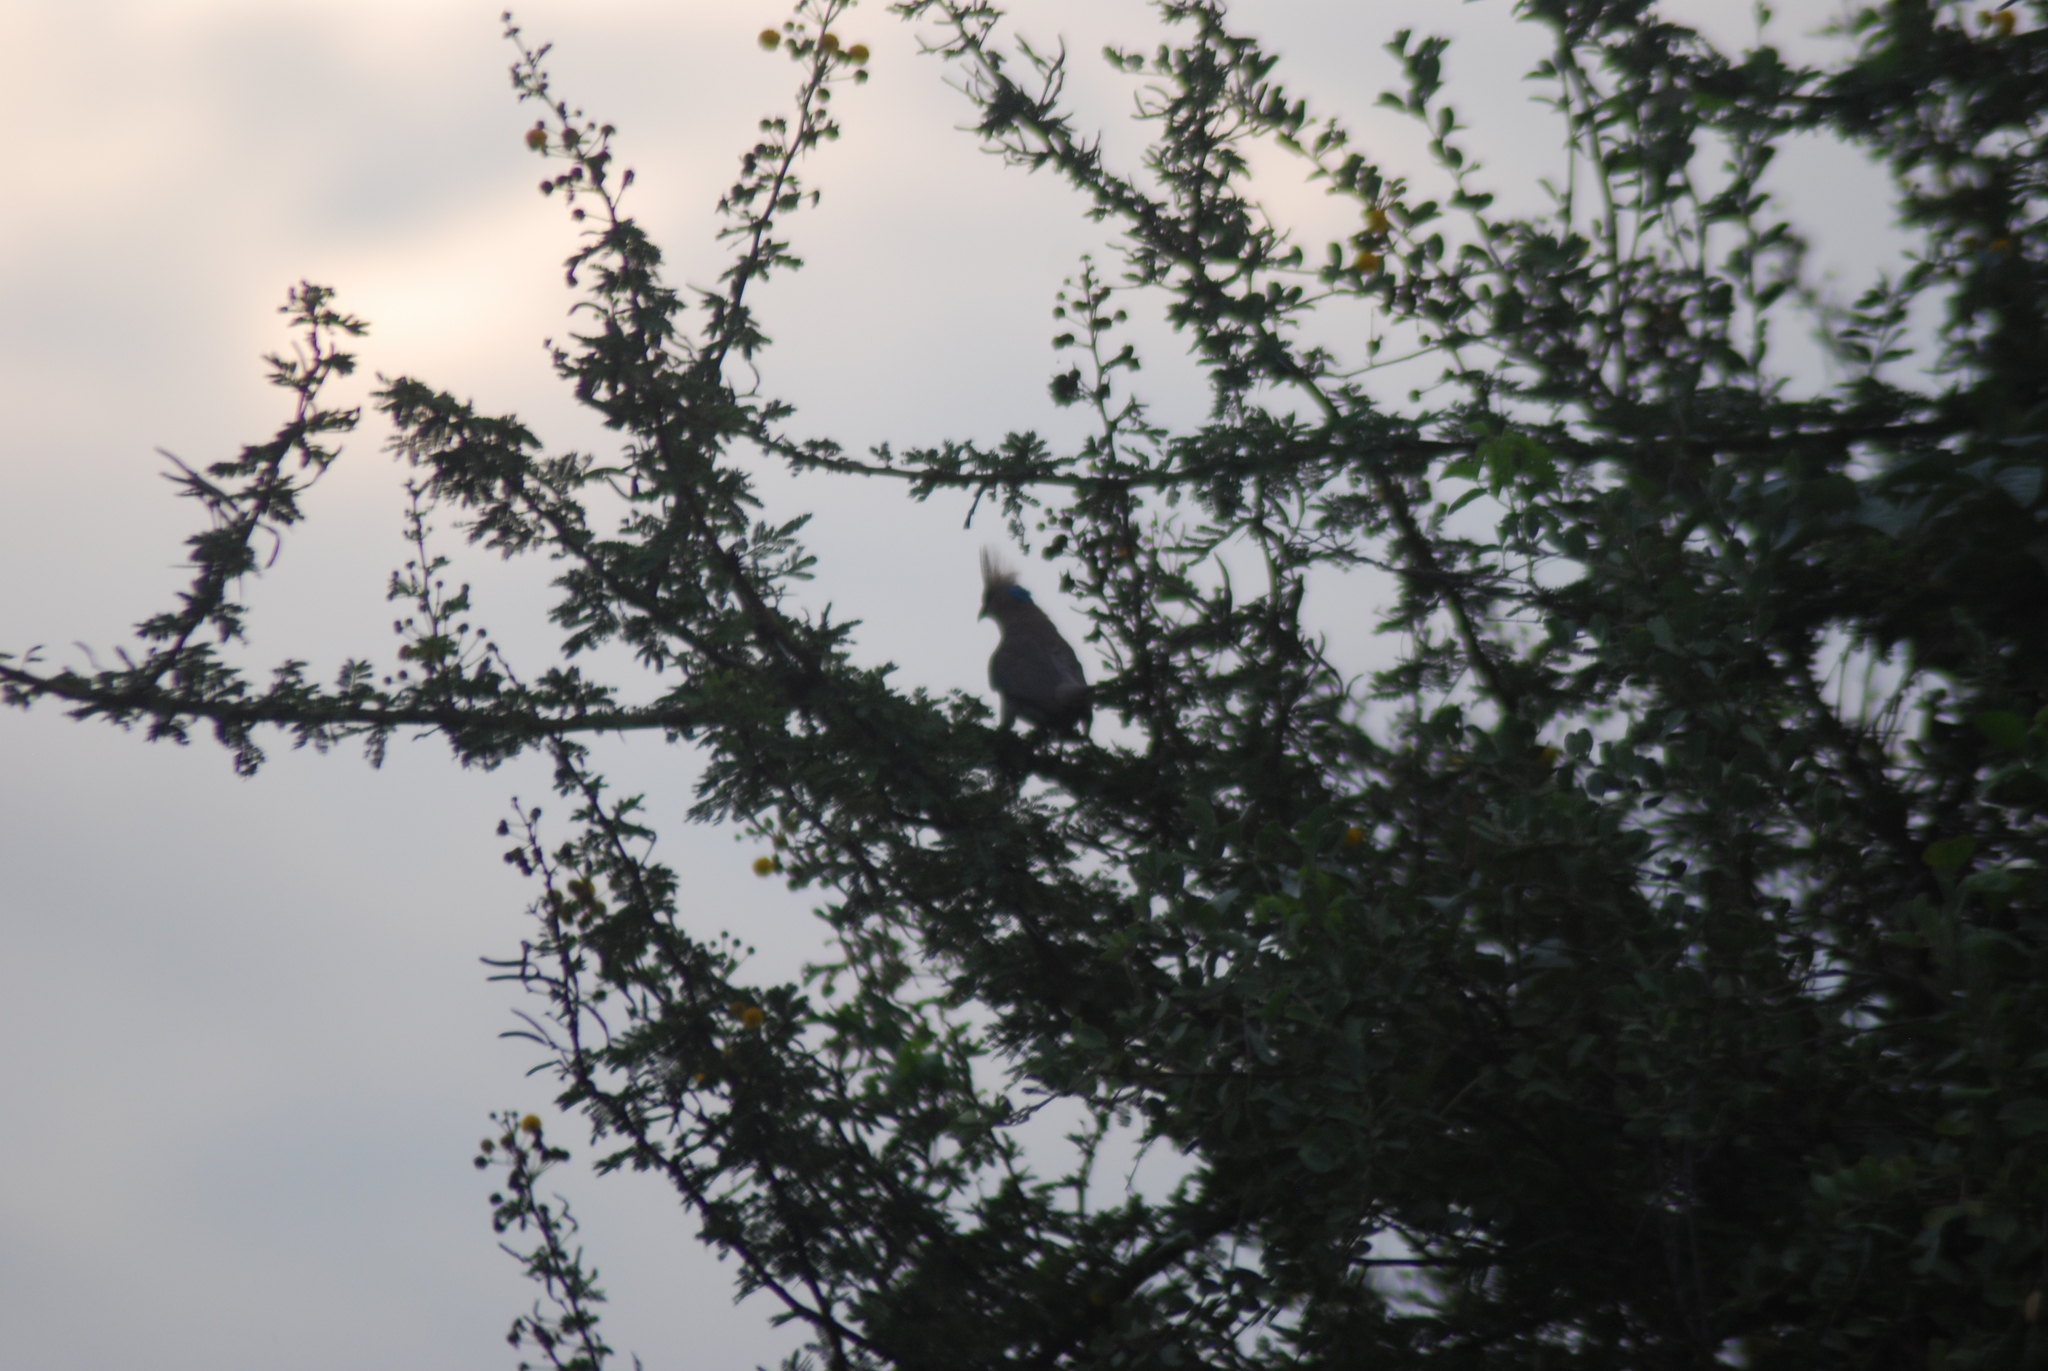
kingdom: Animalia
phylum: Chordata
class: Aves
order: Coliiformes
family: Coliidae
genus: Urocolius
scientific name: Urocolius macrourus
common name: Blue-naped mousebird
